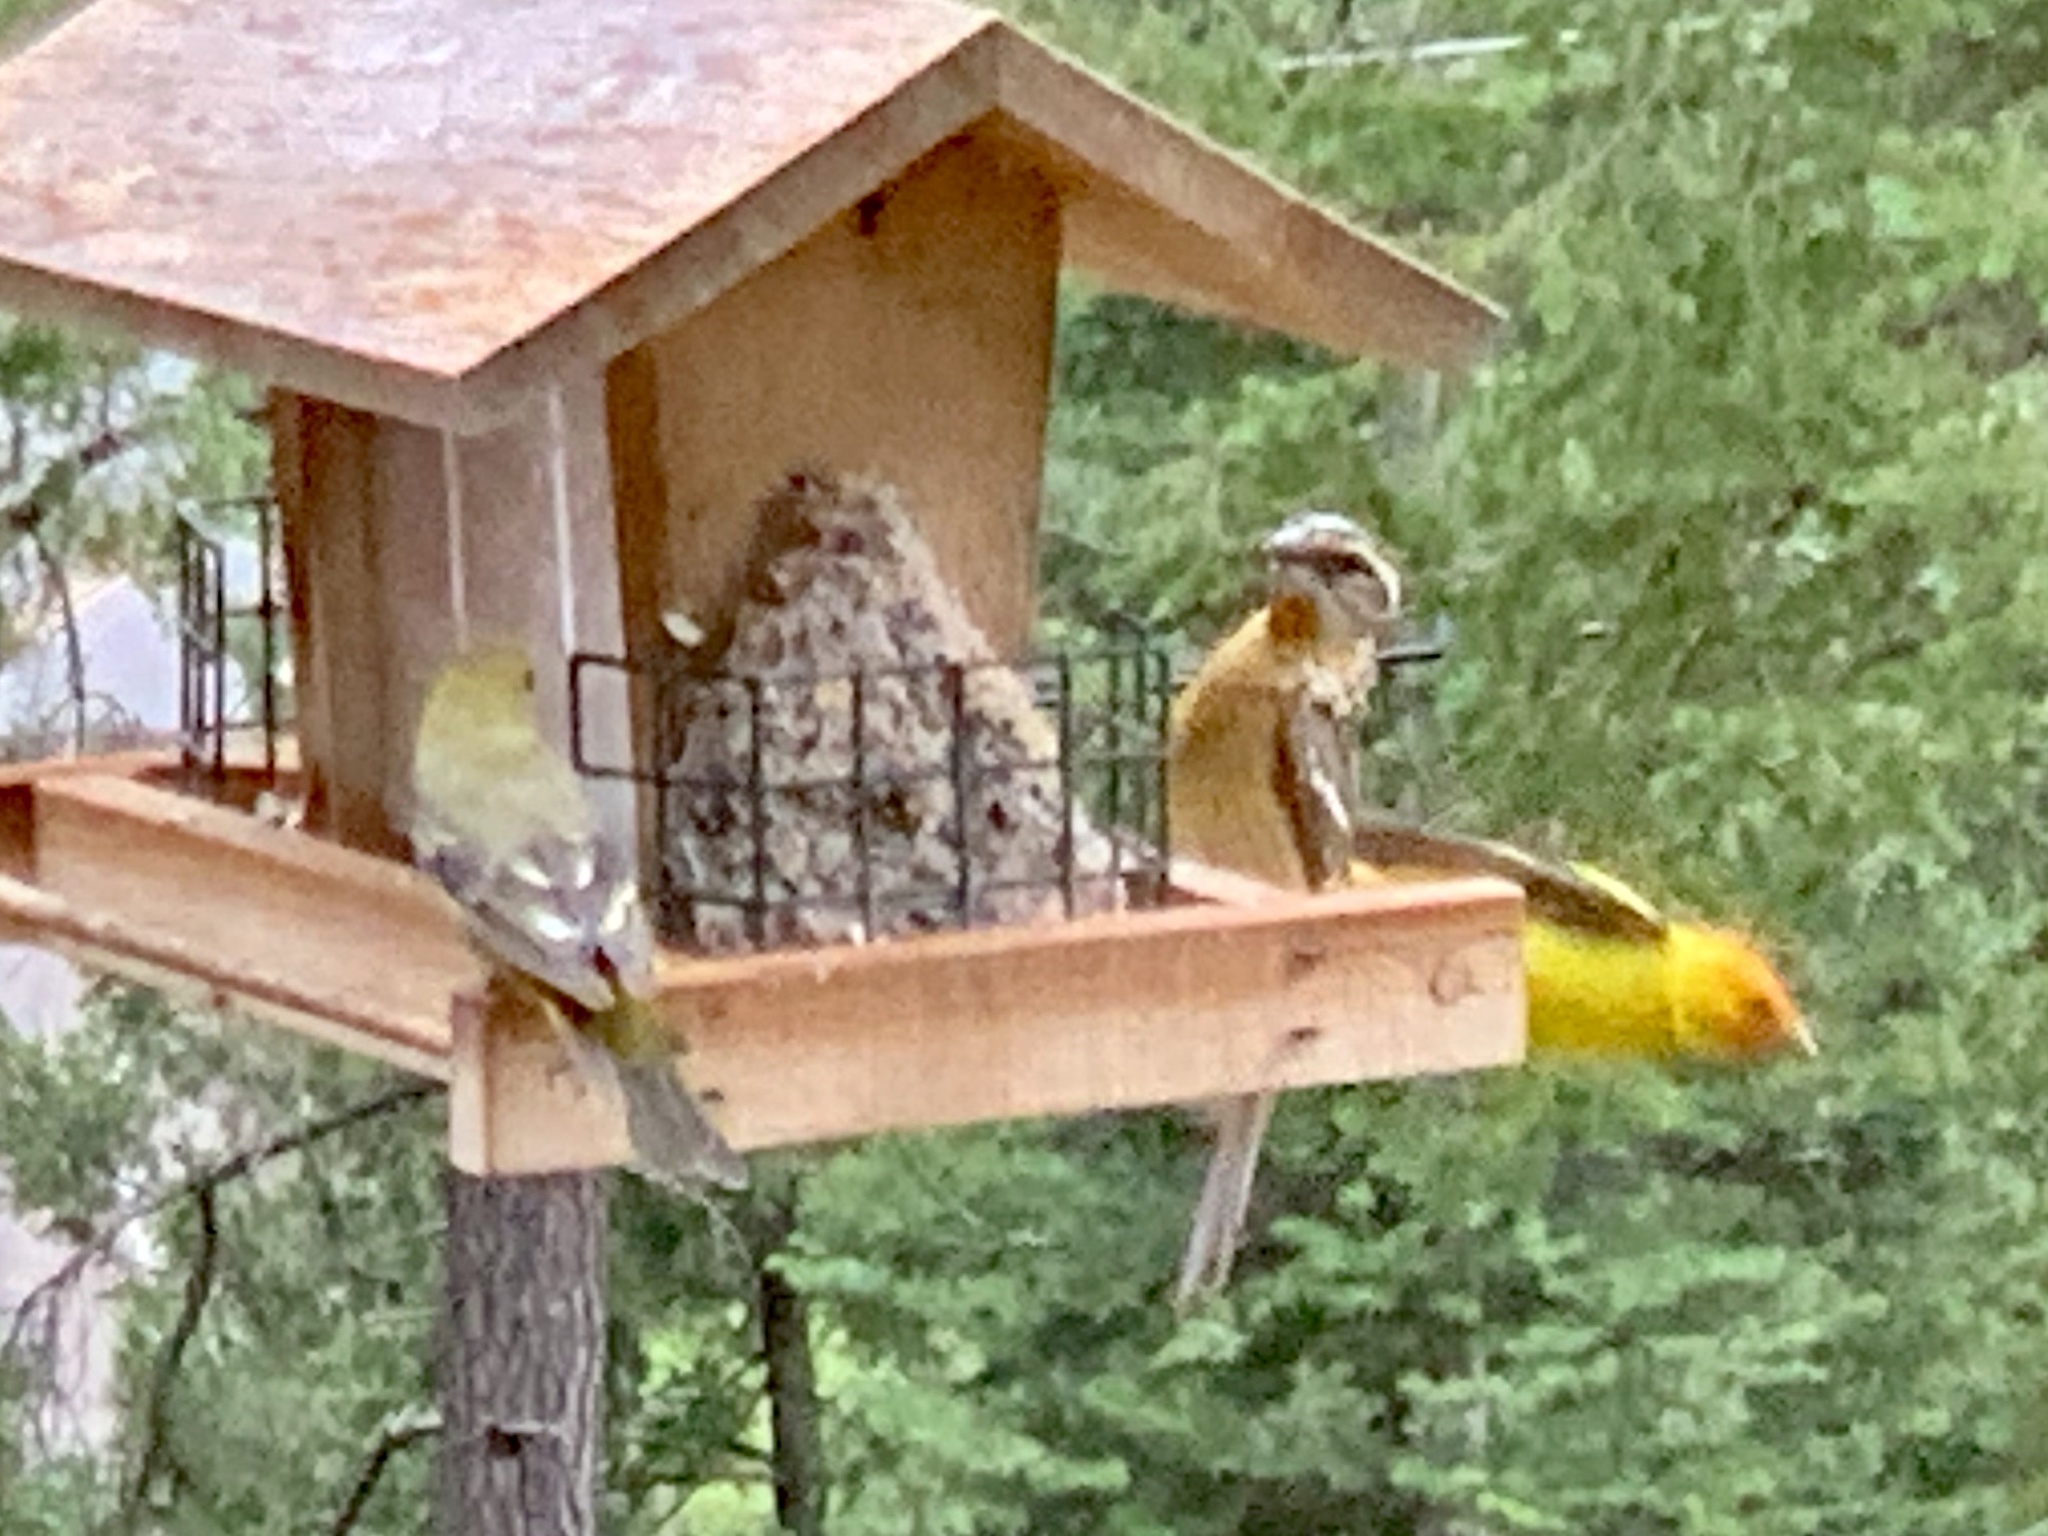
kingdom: Animalia
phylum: Chordata
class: Aves
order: Passeriformes
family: Cardinalidae
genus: Pheucticus
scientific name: Pheucticus melanocephalus
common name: Black-headed grosbeak
